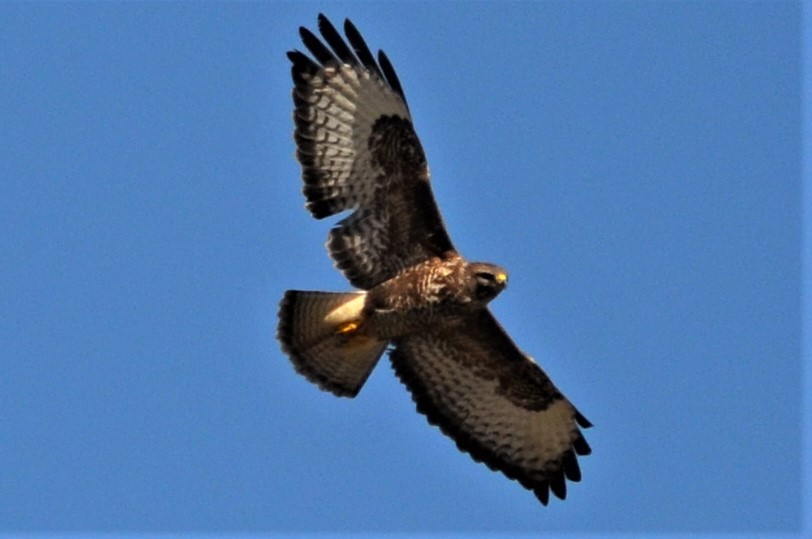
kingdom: Animalia
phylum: Chordata
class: Aves
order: Accipitriformes
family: Accipitridae
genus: Buteo
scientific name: Buteo buteo
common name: Common buzzard
